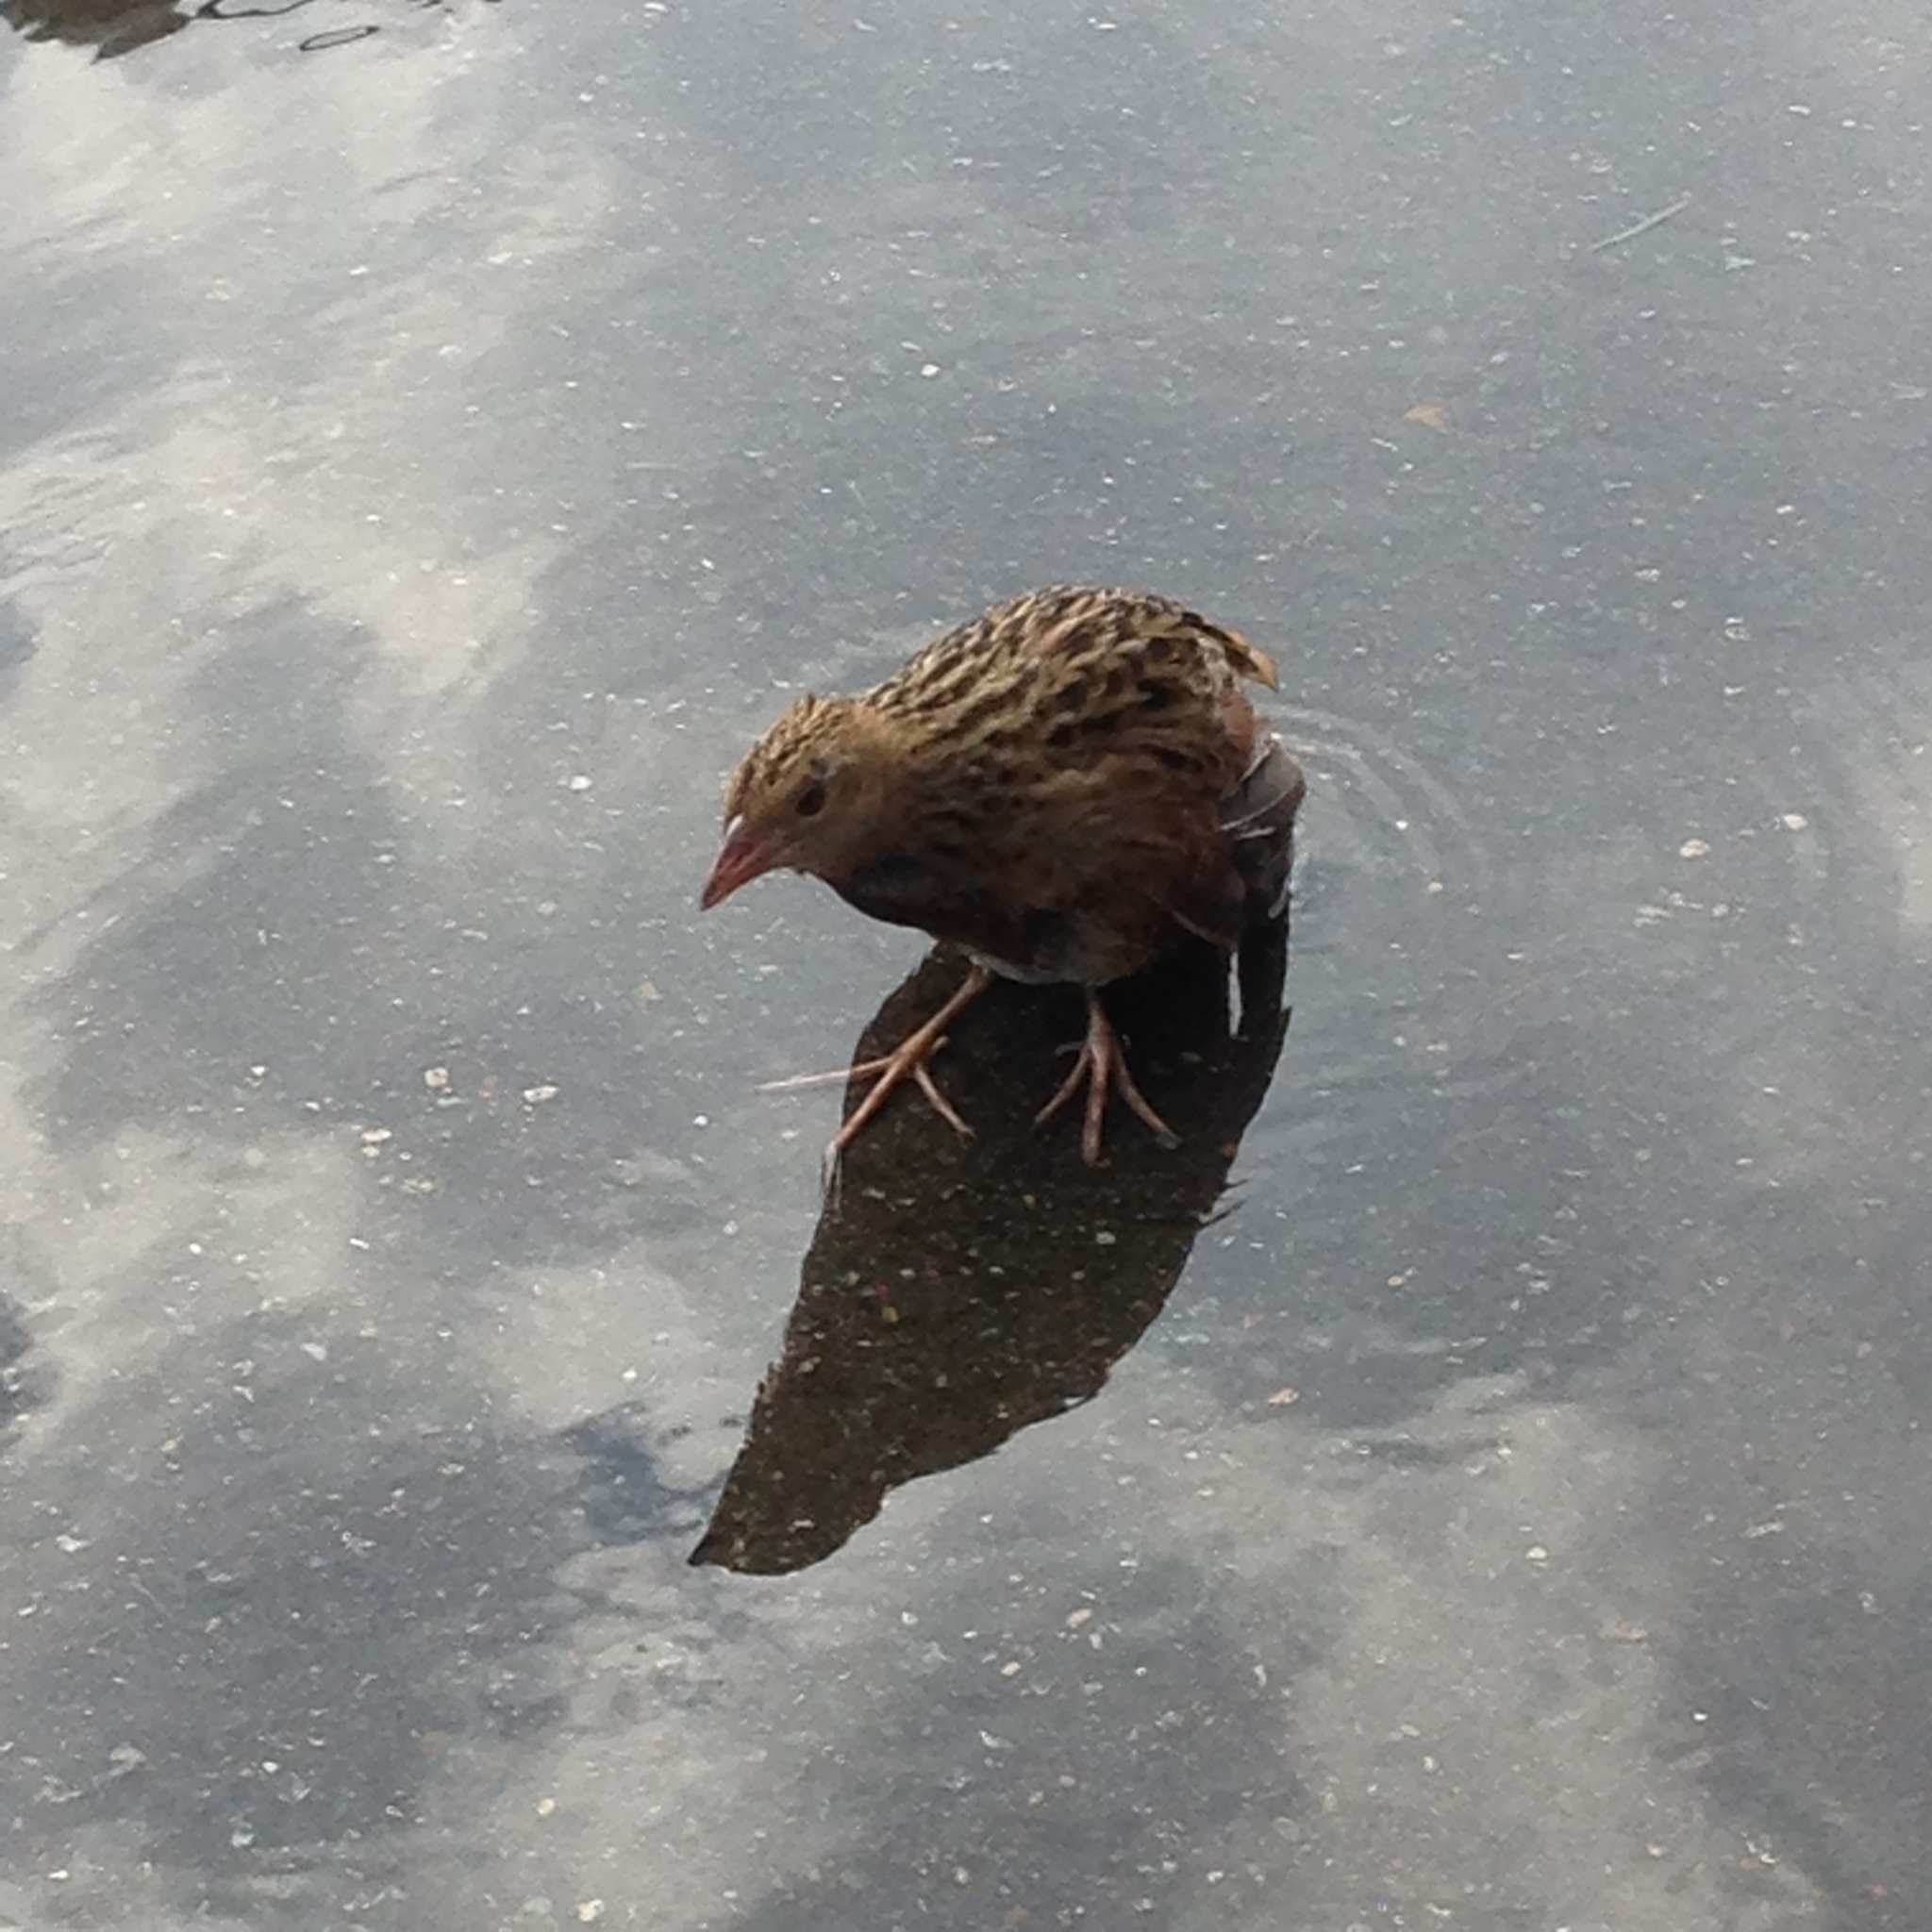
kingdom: Animalia
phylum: Chordata
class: Aves
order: Gruiformes
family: Rallidae
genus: Crex
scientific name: Crex crex
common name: Corn crake
